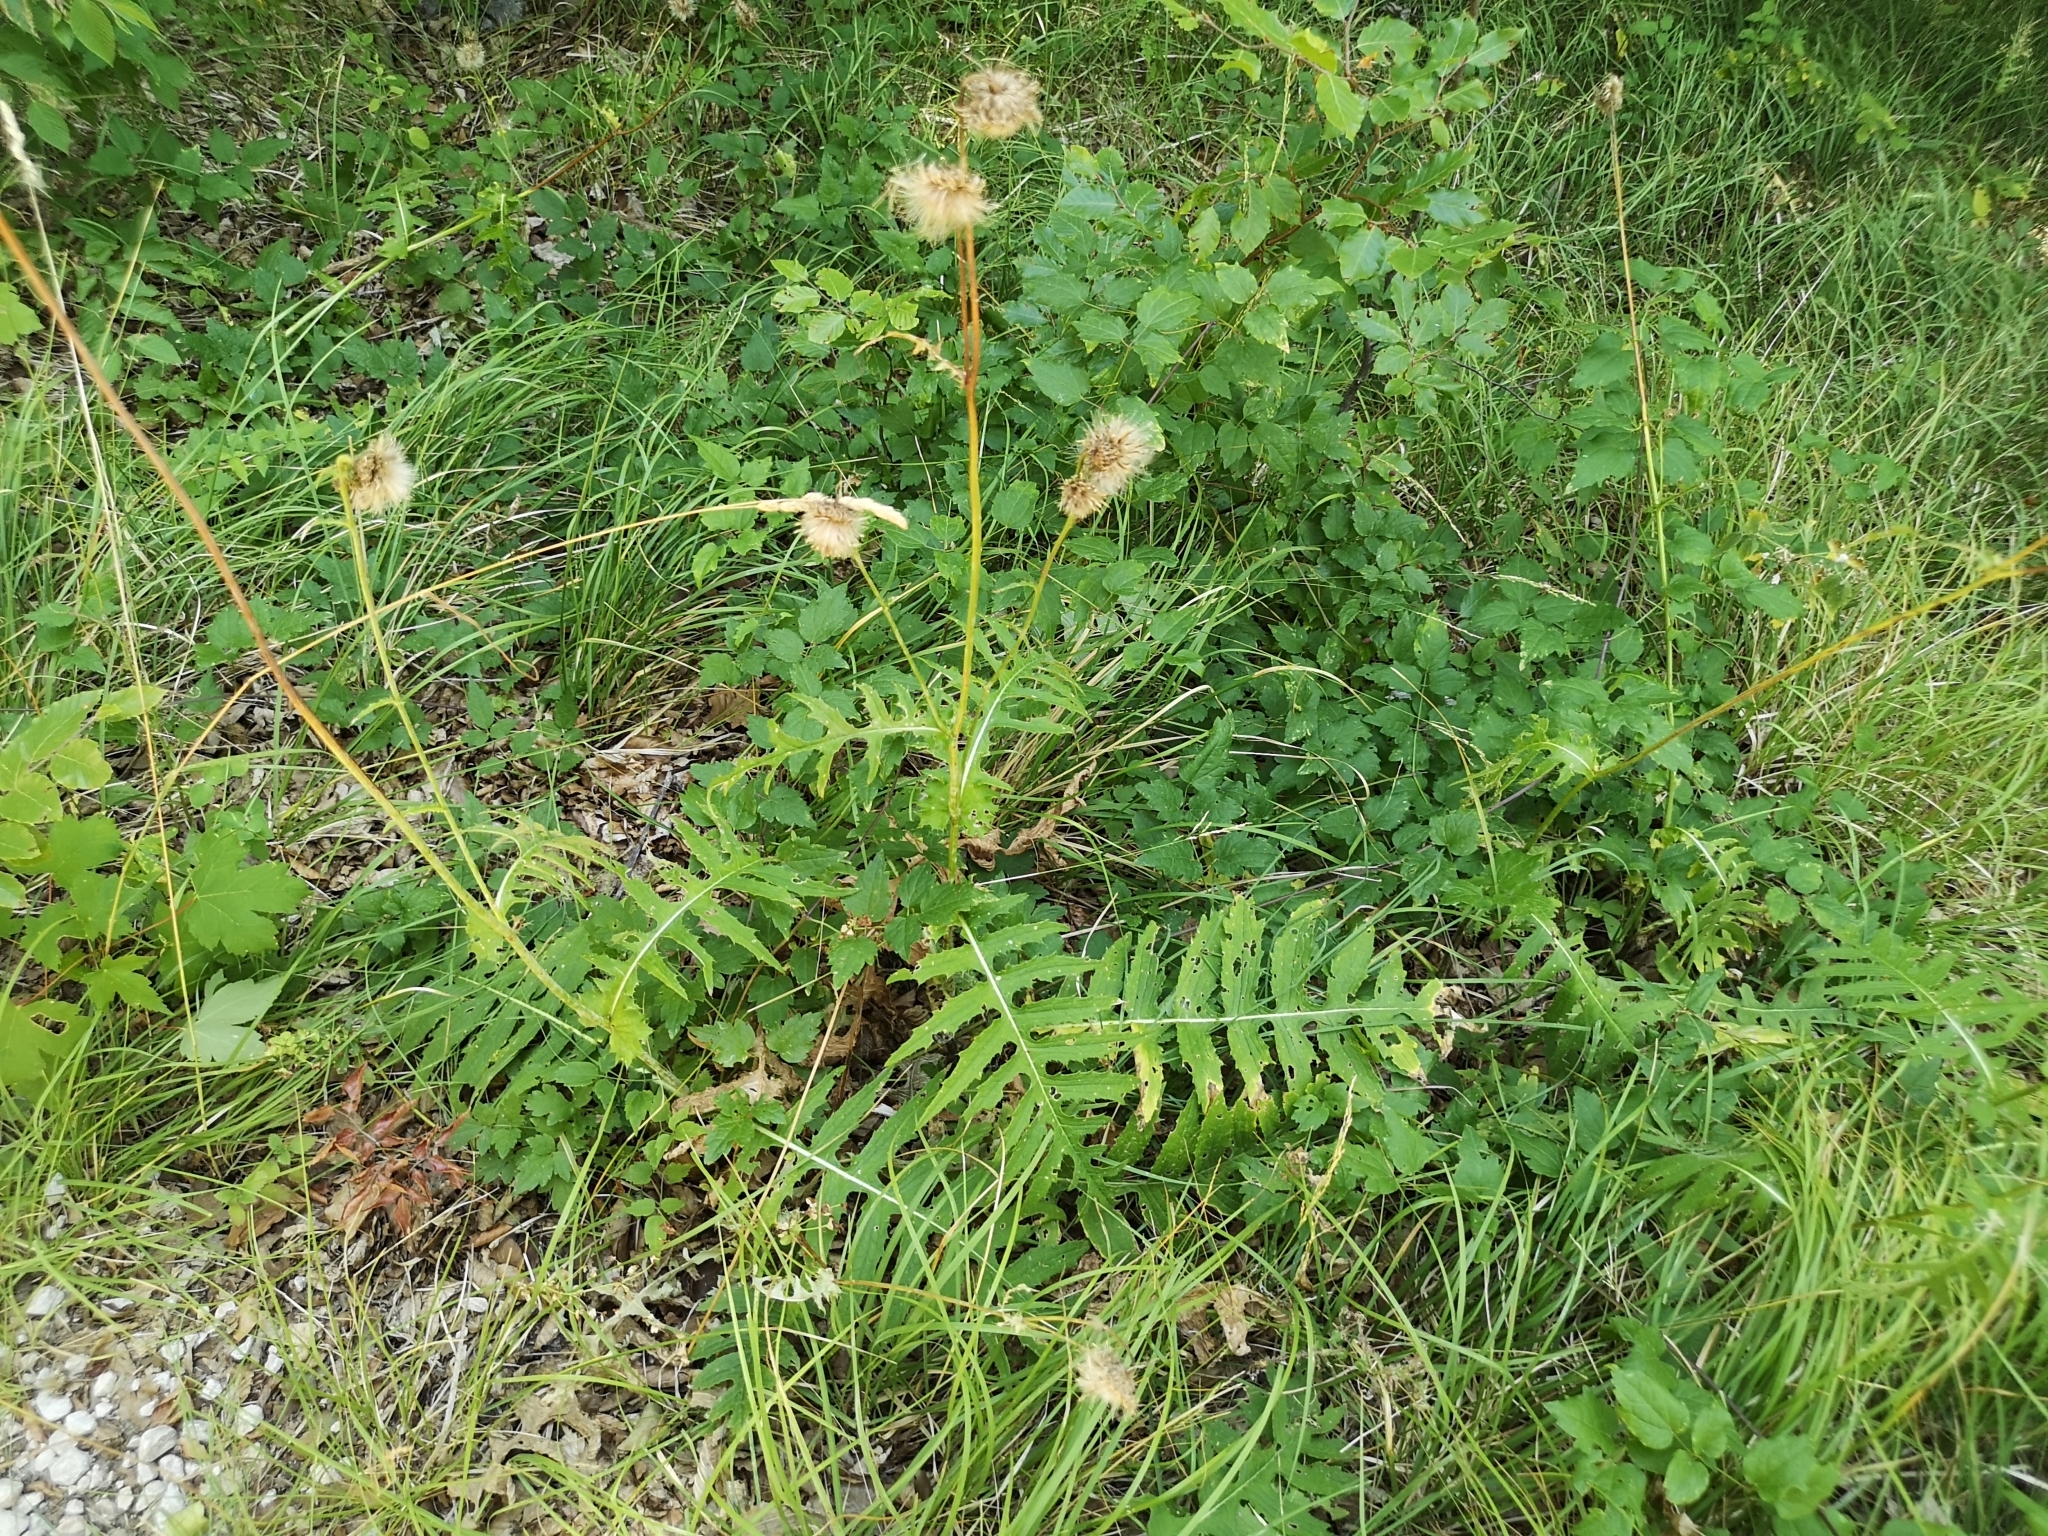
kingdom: Plantae
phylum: Tracheophyta
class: Magnoliopsida
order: Asterales
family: Asteraceae
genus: Cirsium
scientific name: Cirsium erisithales
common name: Yellow thistle
